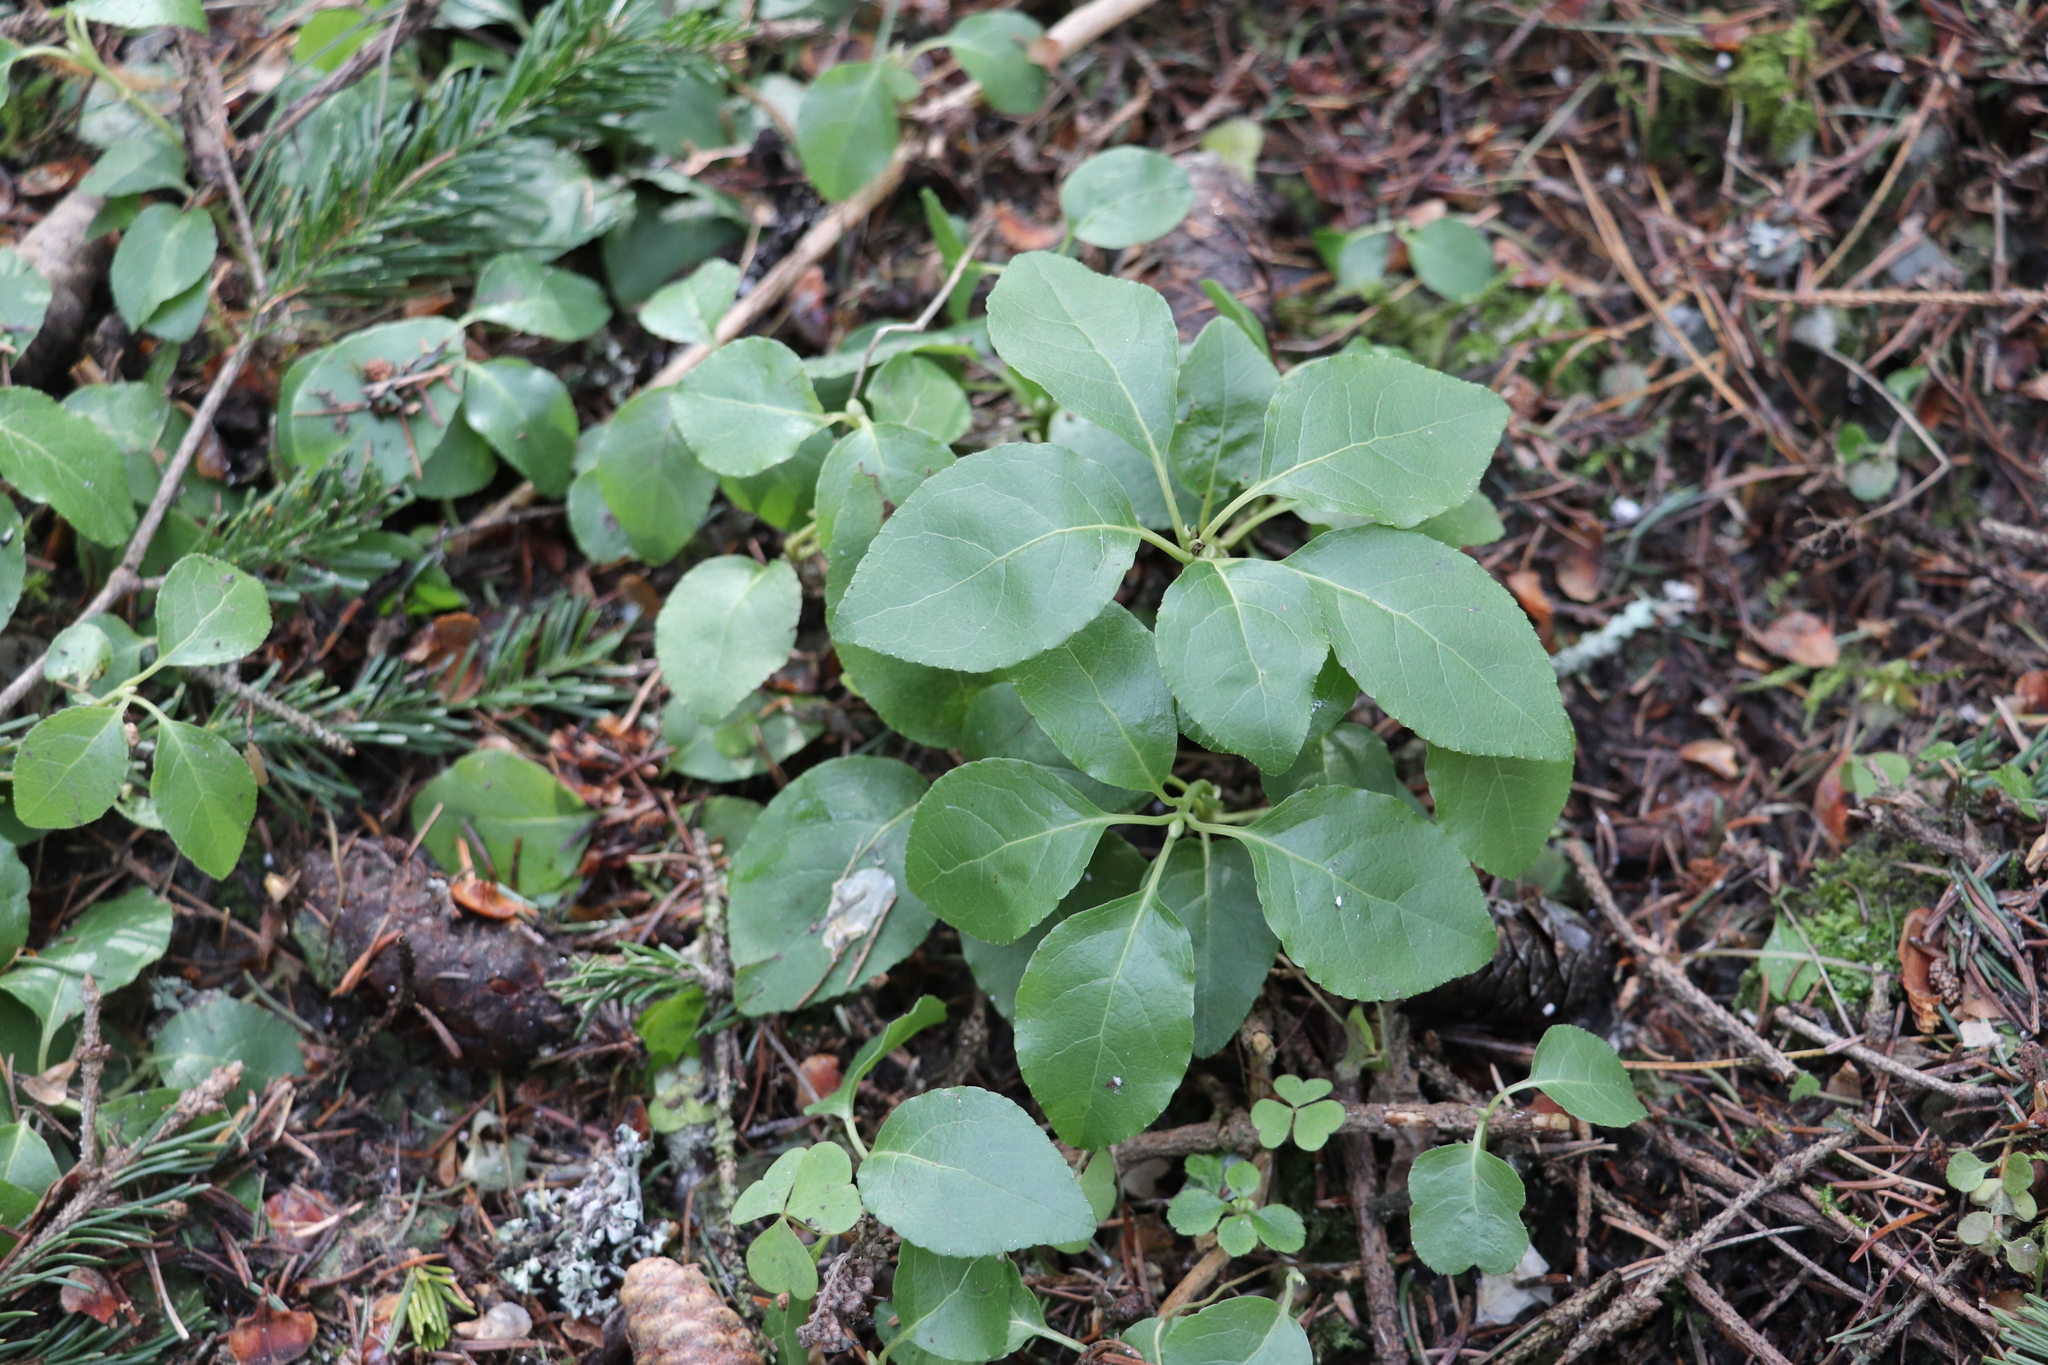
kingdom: Plantae
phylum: Tracheophyta
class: Magnoliopsida
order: Ericales
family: Ericaceae
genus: Orthilia
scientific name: Orthilia secunda
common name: One-sided orthilia
